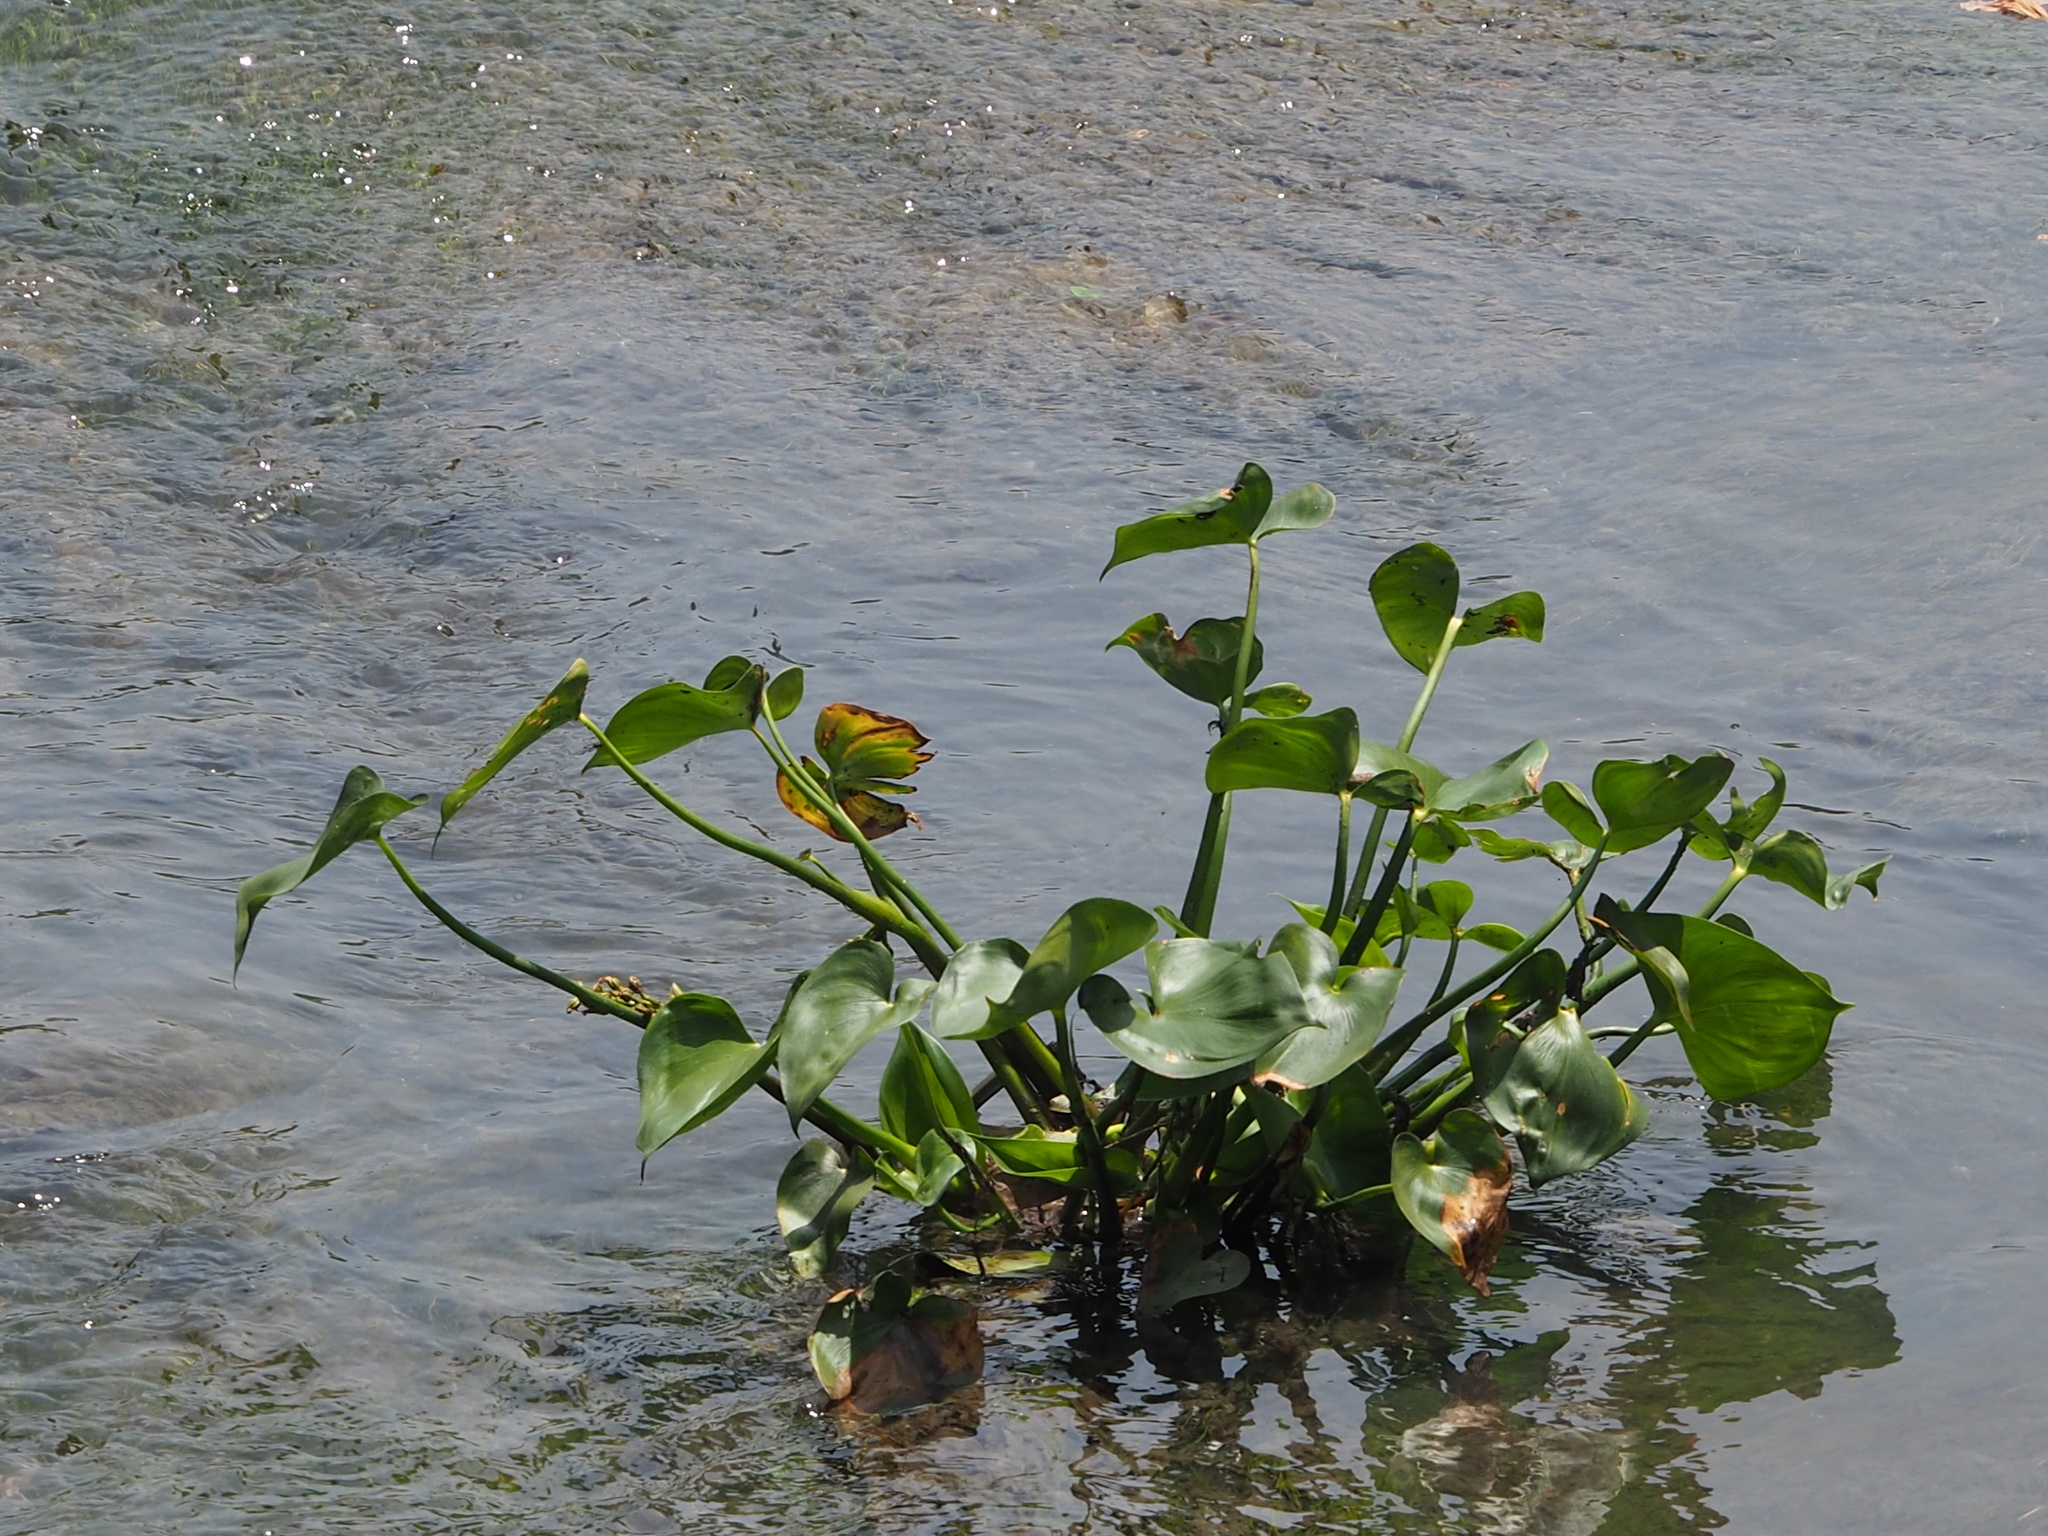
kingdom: Plantae
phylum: Tracheophyta
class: Liliopsida
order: Commelinales
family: Pontederiaceae
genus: Pontederia
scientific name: Pontederia vaginalis
